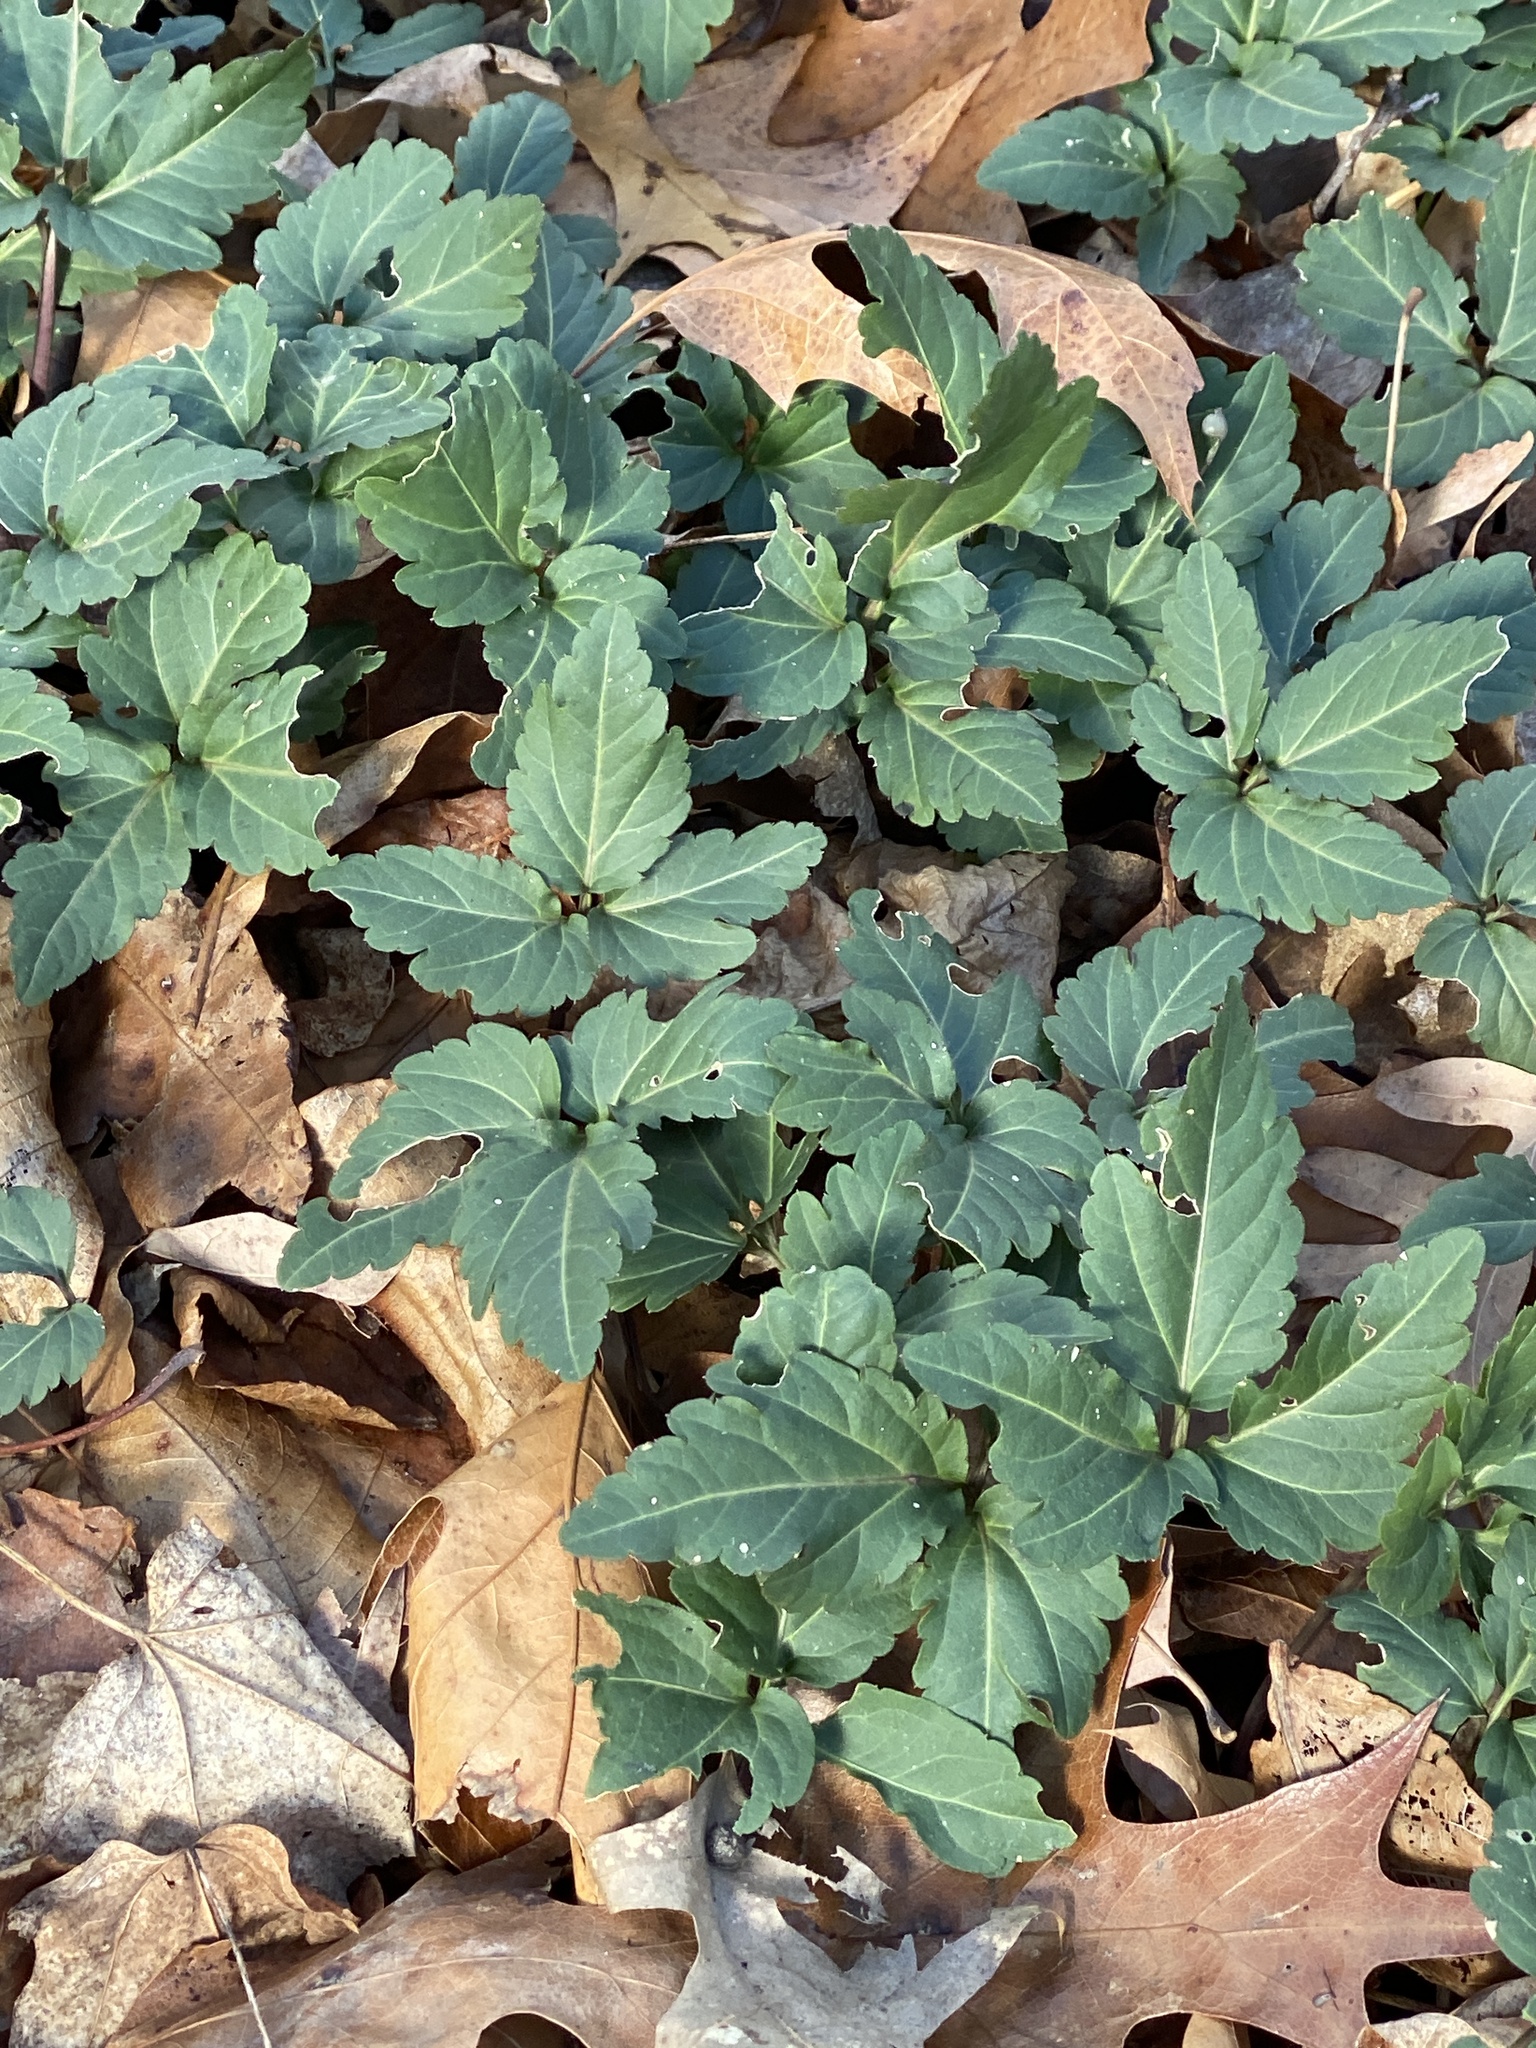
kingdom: Plantae
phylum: Tracheophyta
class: Magnoliopsida
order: Brassicales
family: Brassicaceae
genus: Cardamine
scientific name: Cardamine diphylla
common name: Broad-leaved toothwort
